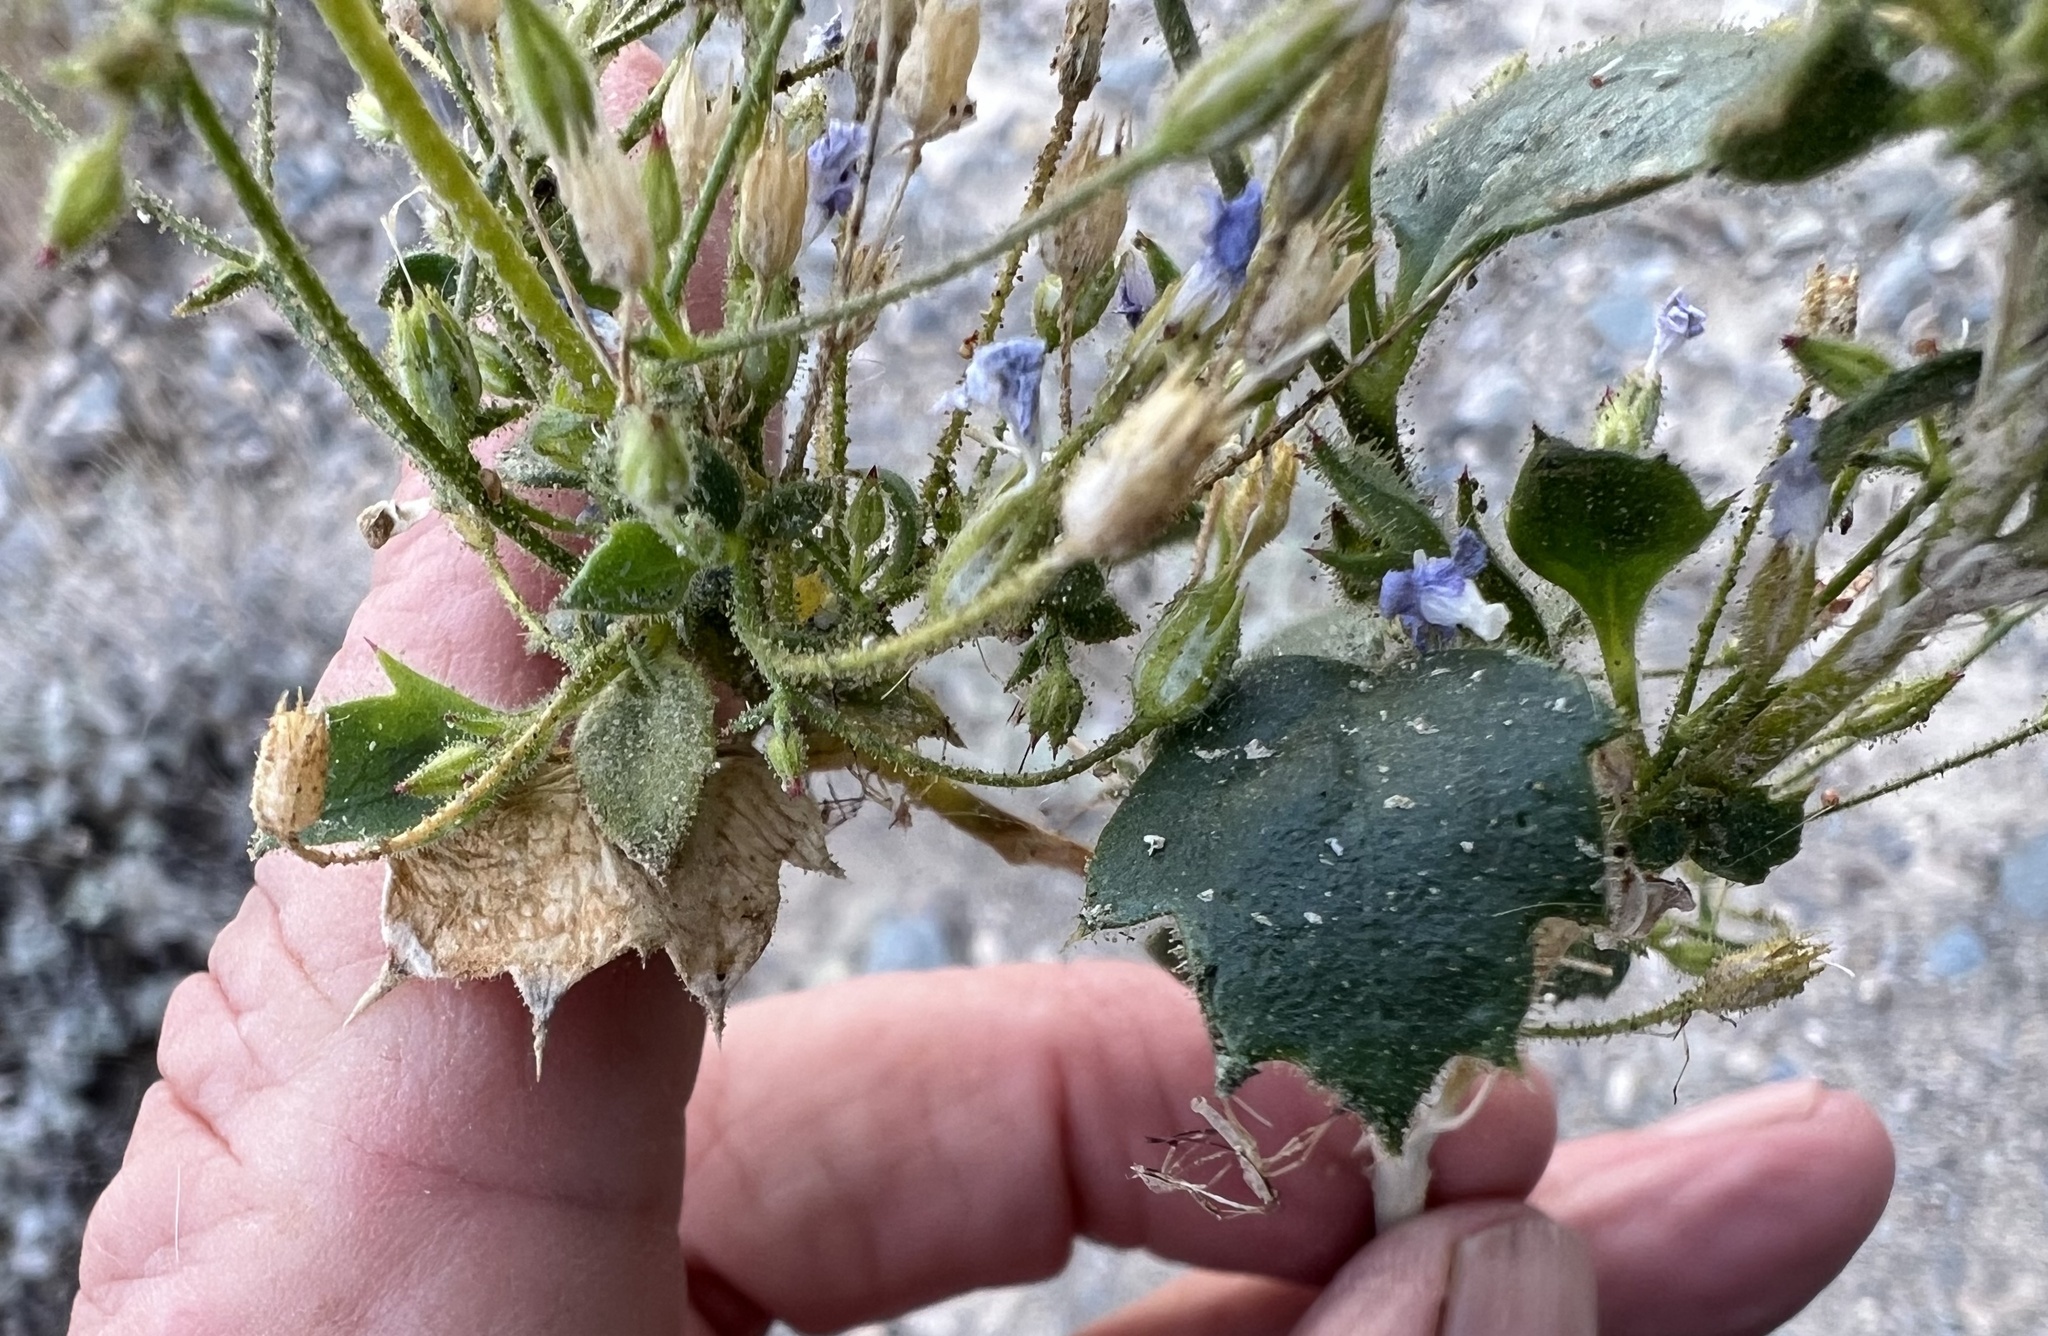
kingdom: Plantae
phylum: Tracheophyta
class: Magnoliopsida
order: Ericales
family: Polemoniaceae
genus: Aliciella
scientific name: Aliciella latifolia
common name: Broad-leaf gilia
